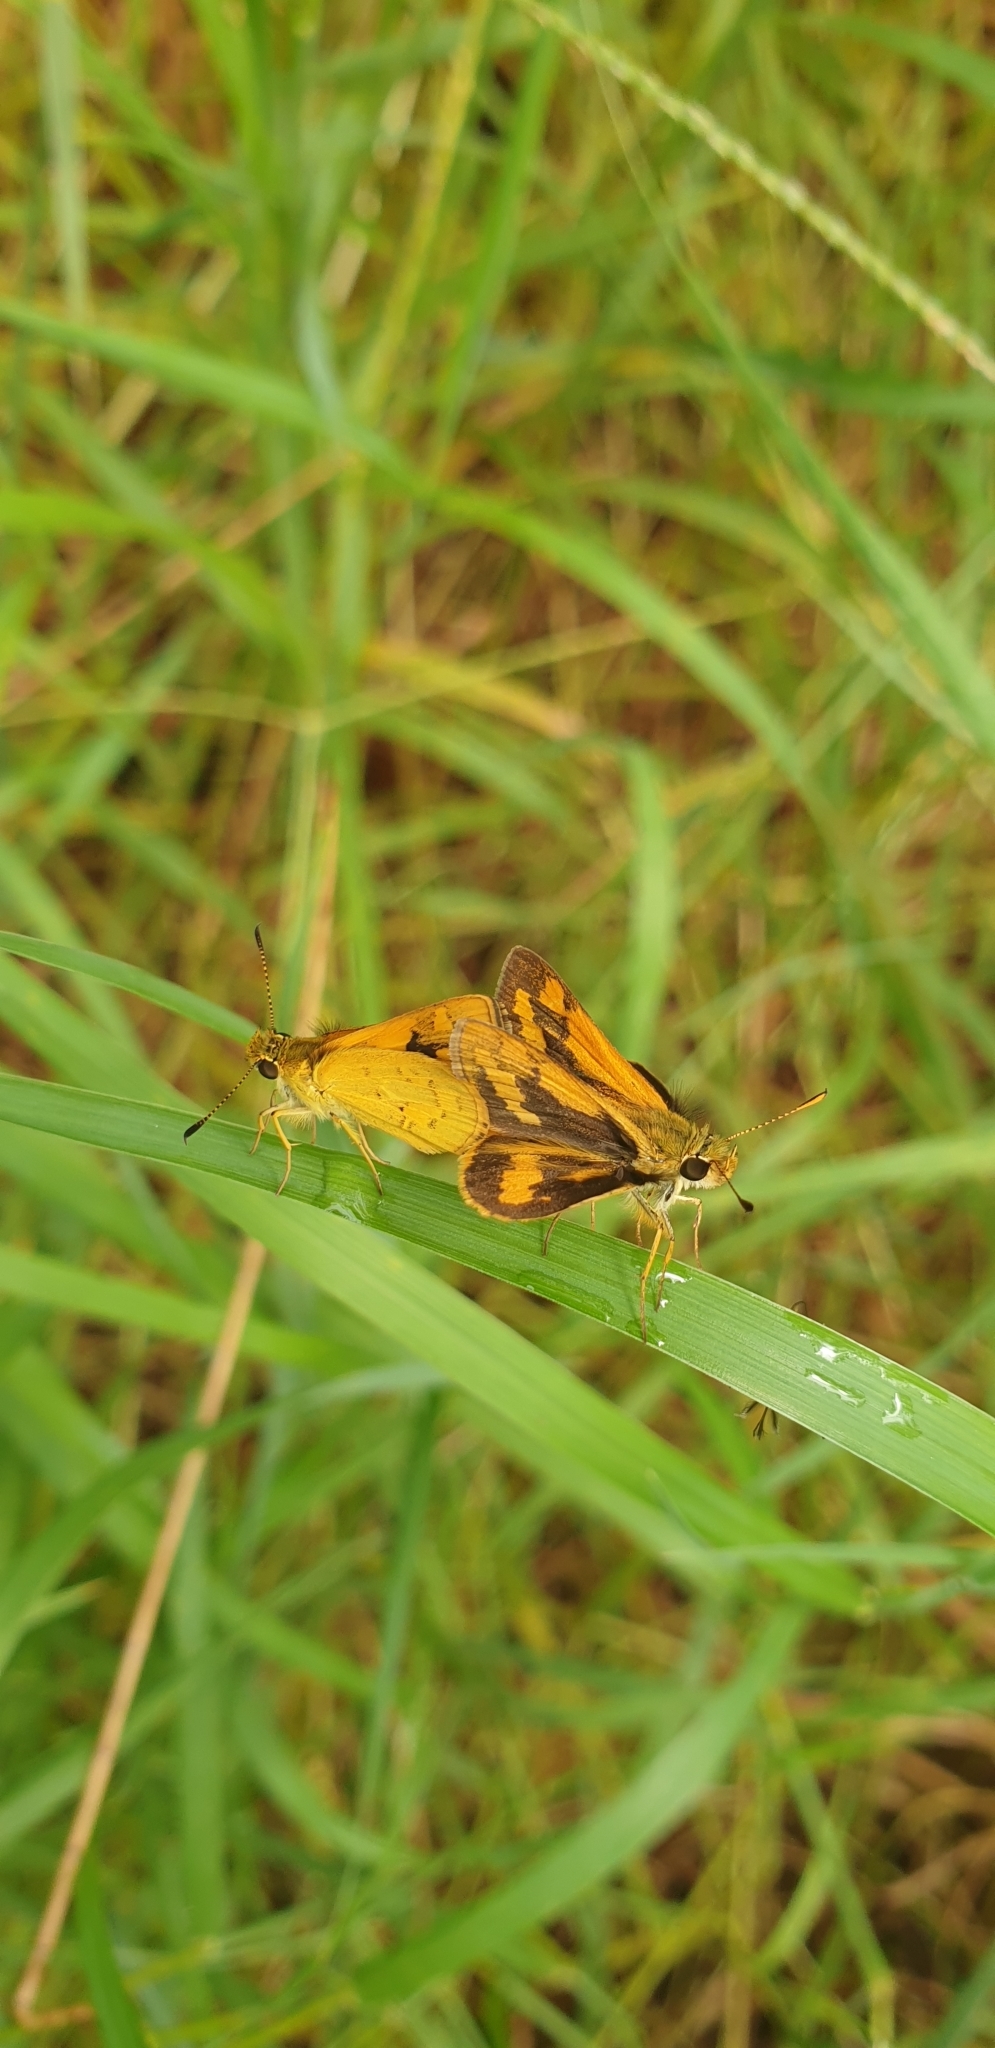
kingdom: Animalia
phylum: Arthropoda
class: Insecta
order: Lepidoptera
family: Hesperiidae
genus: Ocybadistes
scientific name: Ocybadistes walkeri
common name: Yellow-banded dart
